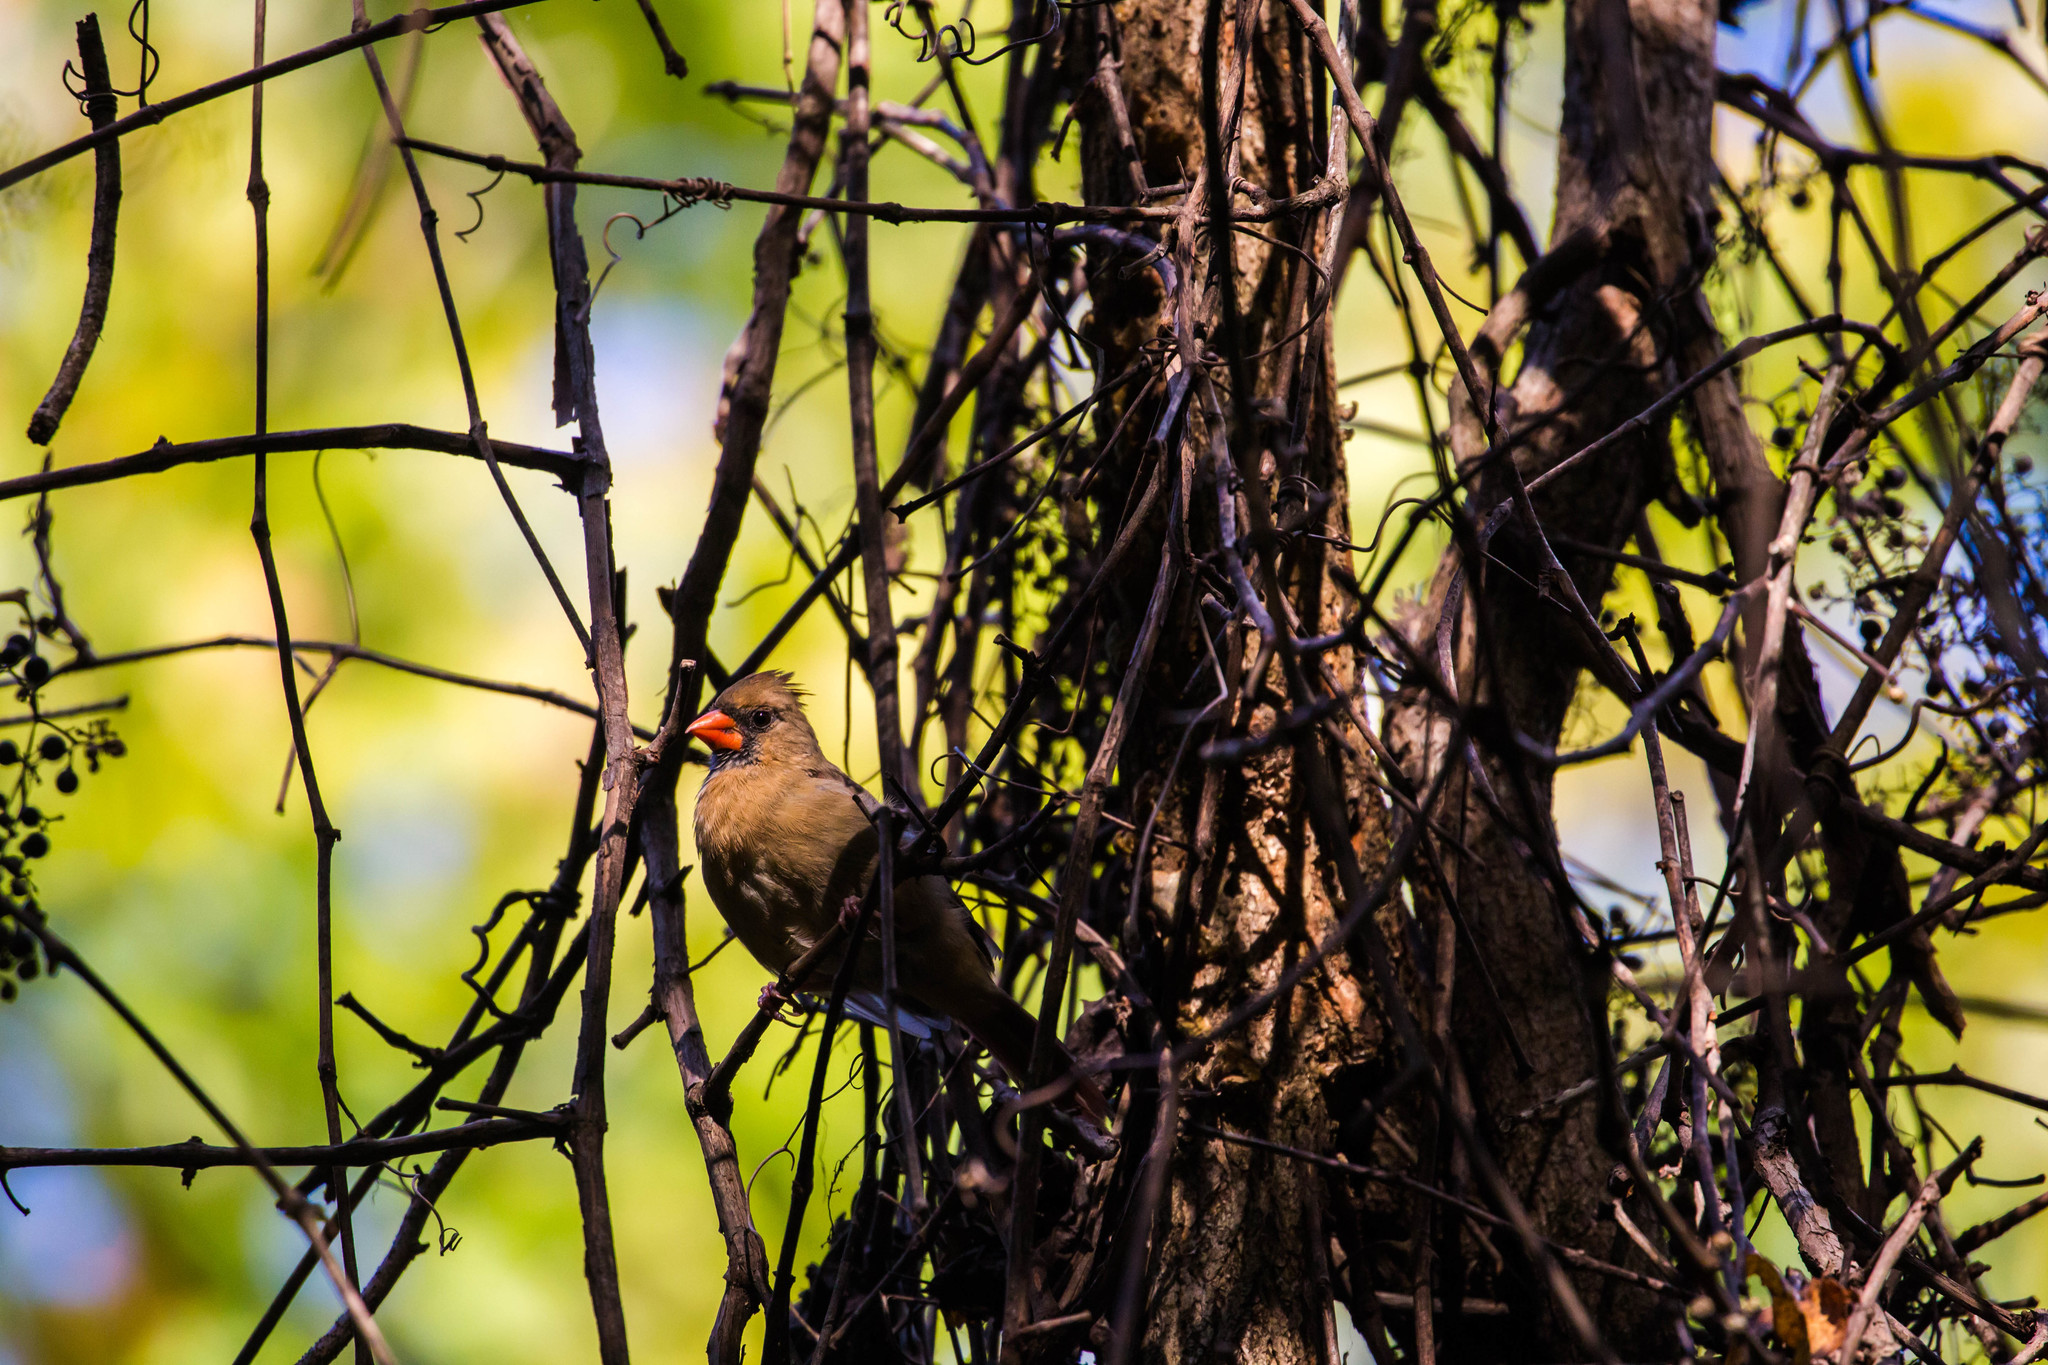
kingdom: Animalia
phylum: Chordata
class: Aves
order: Passeriformes
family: Cardinalidae
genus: Cardinalis
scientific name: Cardinalis cardinalis
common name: Northern cardinal
